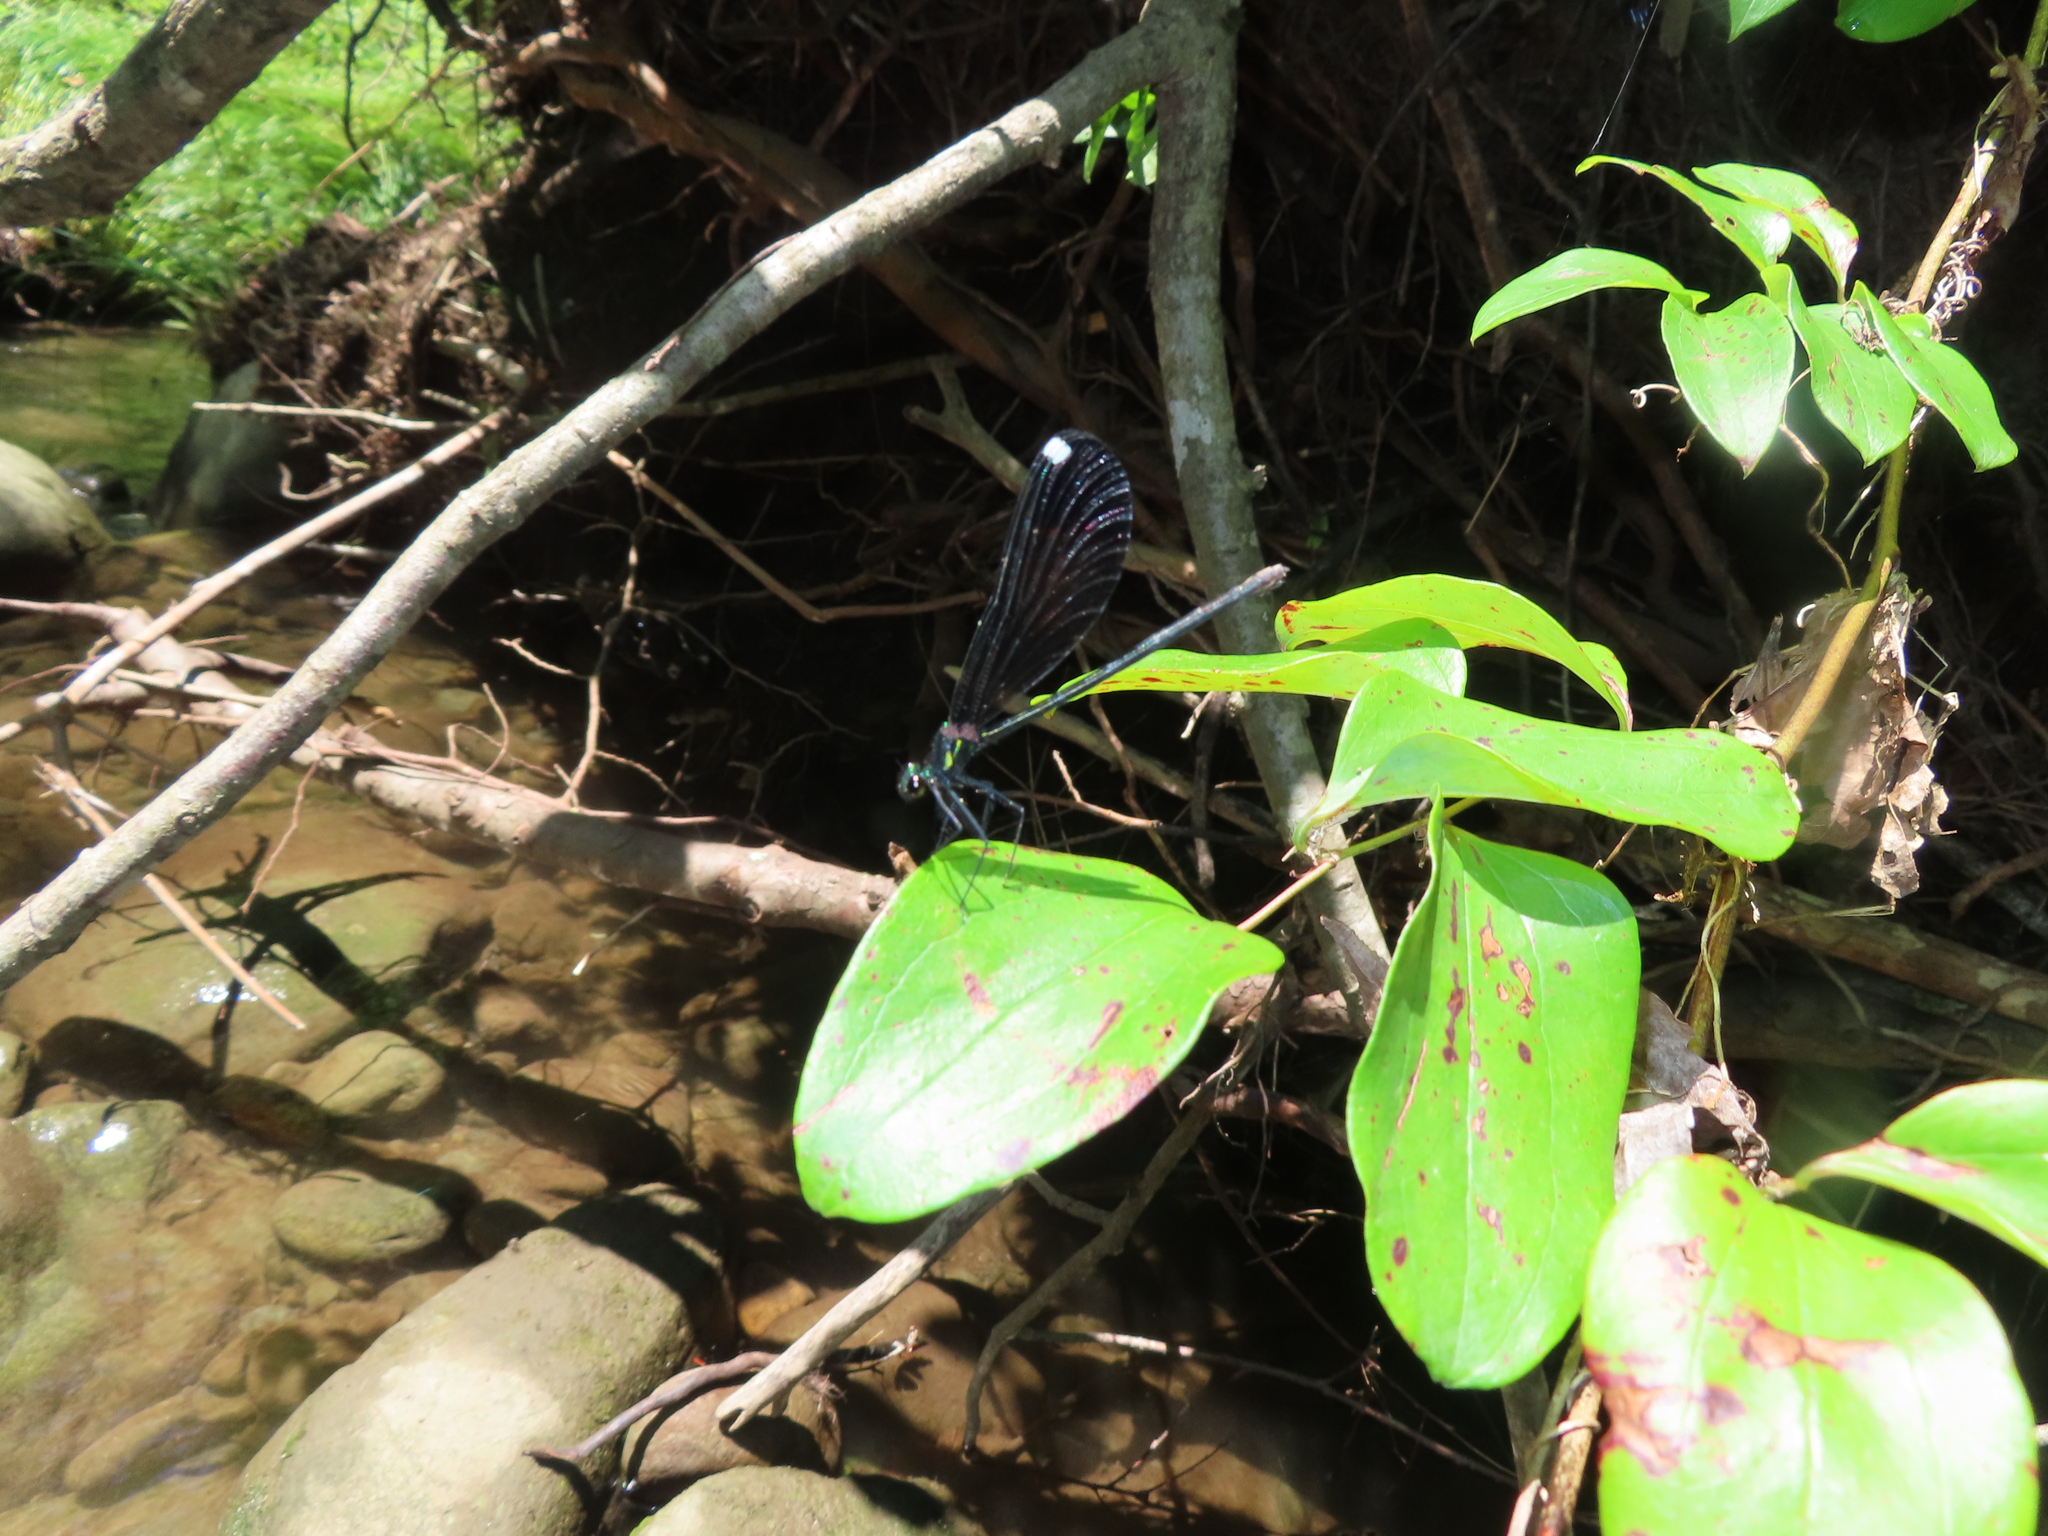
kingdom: Animalia
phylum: Arthropoda
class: Insecta
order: Odonata
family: Calopterygidae
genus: Calopteryx
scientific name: Calopteryx maculata
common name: Ebony jewelwing
